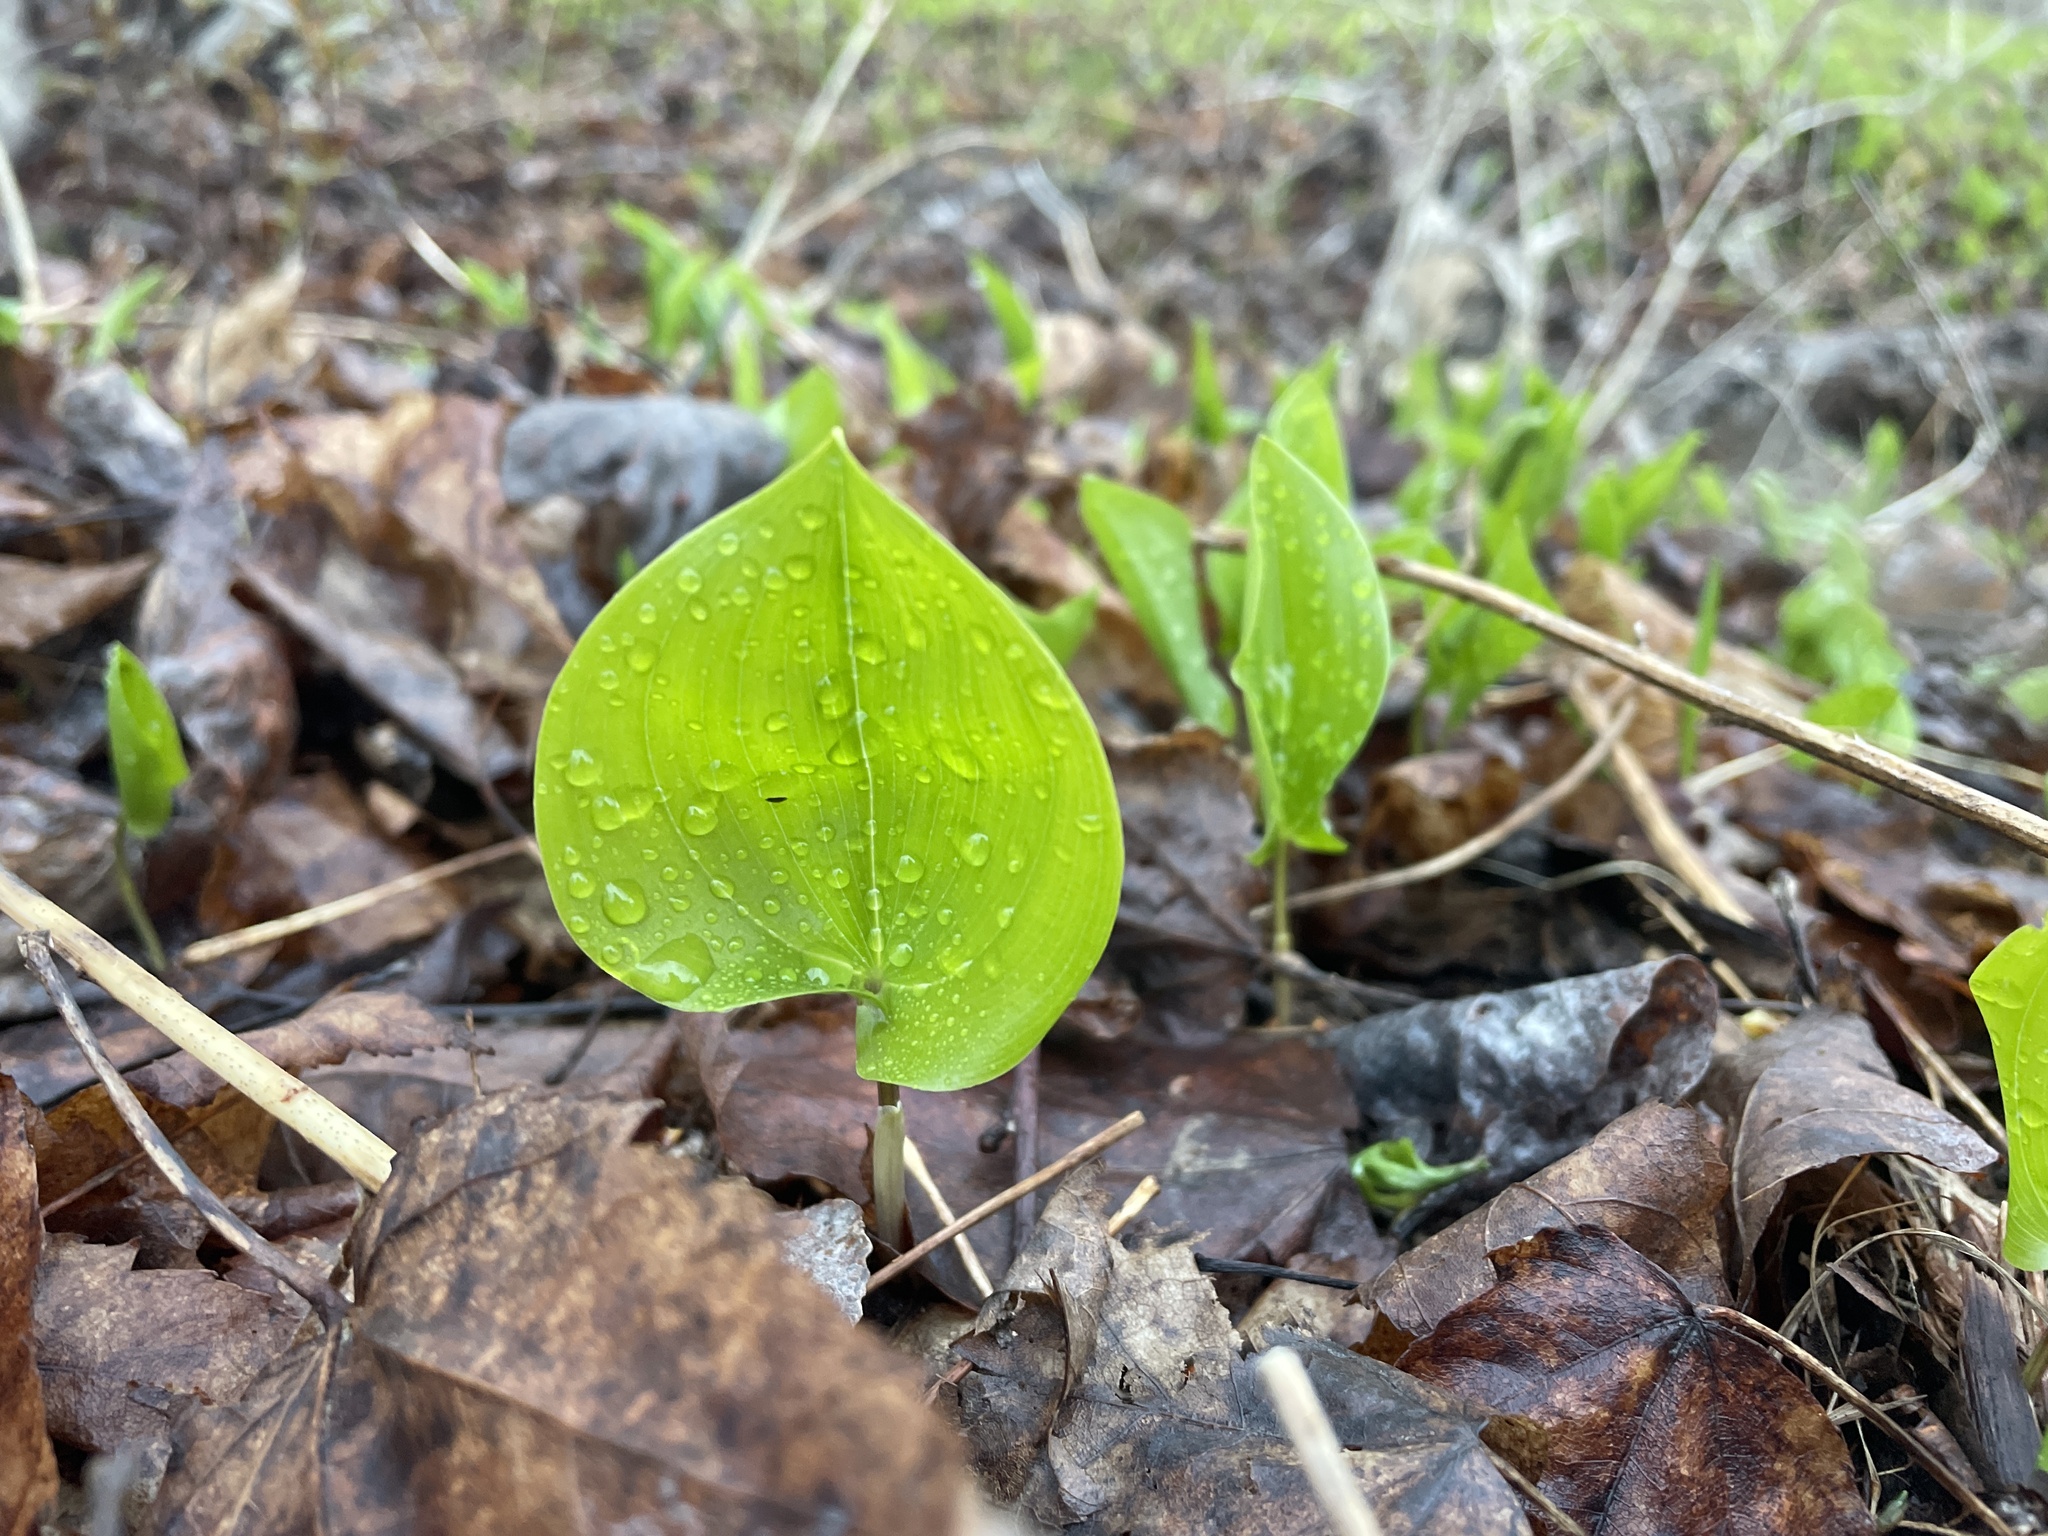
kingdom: Plantae
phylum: Tracheophyta
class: Liliopsida
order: Asparagales
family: Asparagaceae
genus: Maianthemum
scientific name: Maianthemum canadense
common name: False lily-of-the-valley
